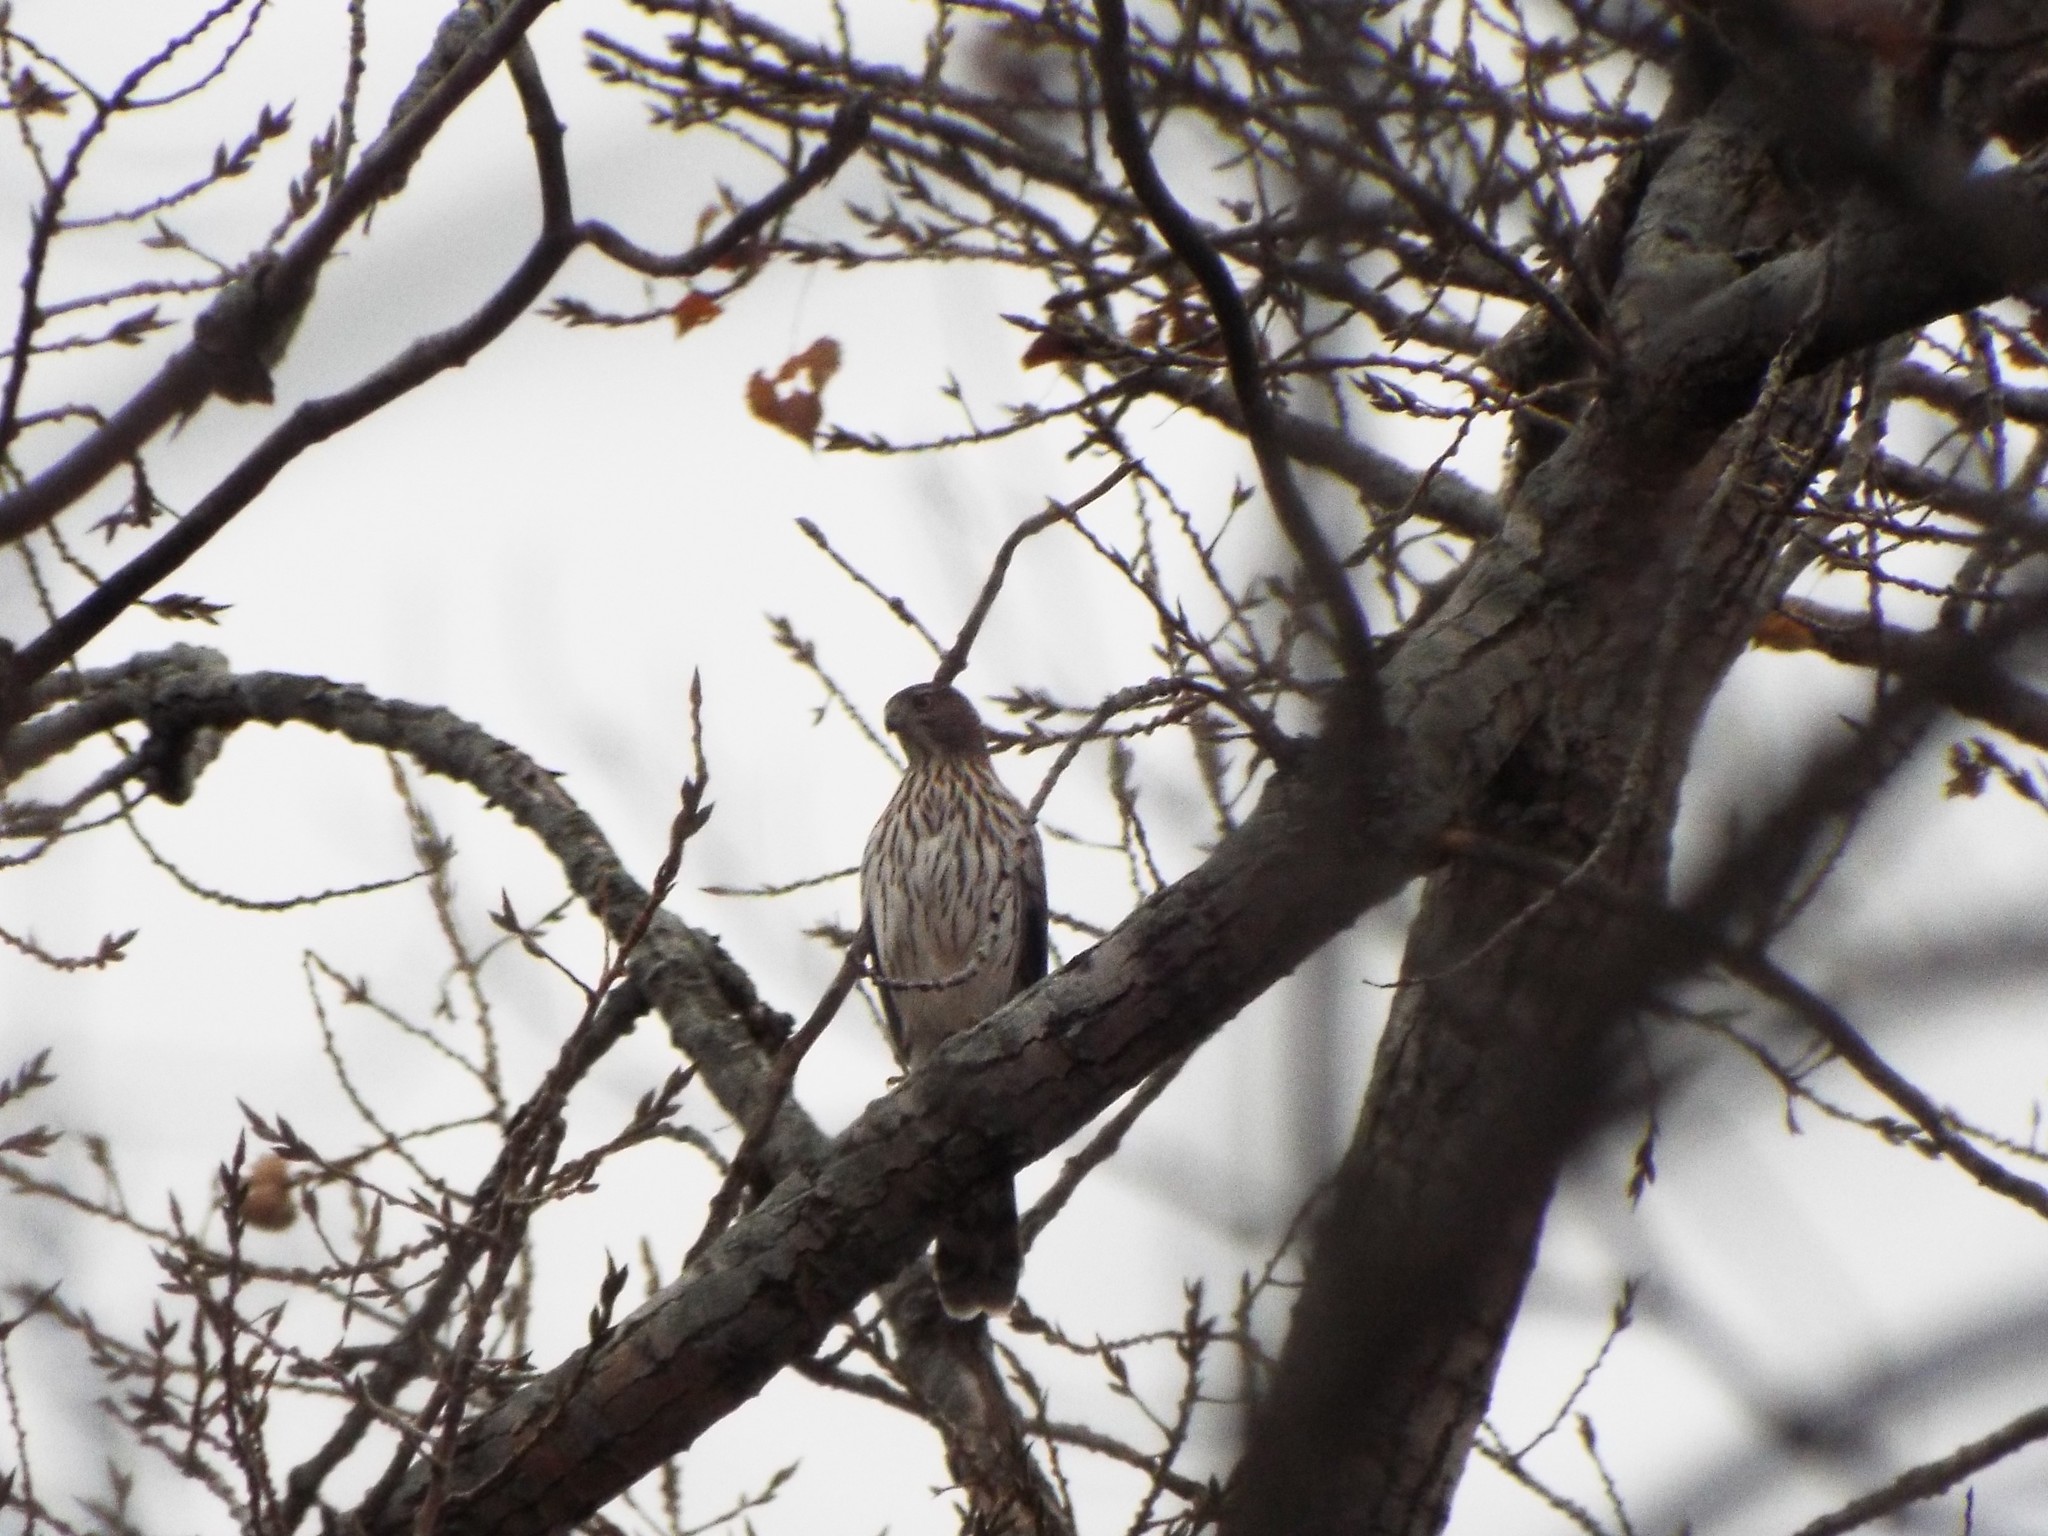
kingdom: Animalia
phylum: Chordata
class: Aves
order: Accipitriformes
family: Accipitridae
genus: Accipiter
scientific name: Accipiter cooperii
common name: Cooper's hawk
